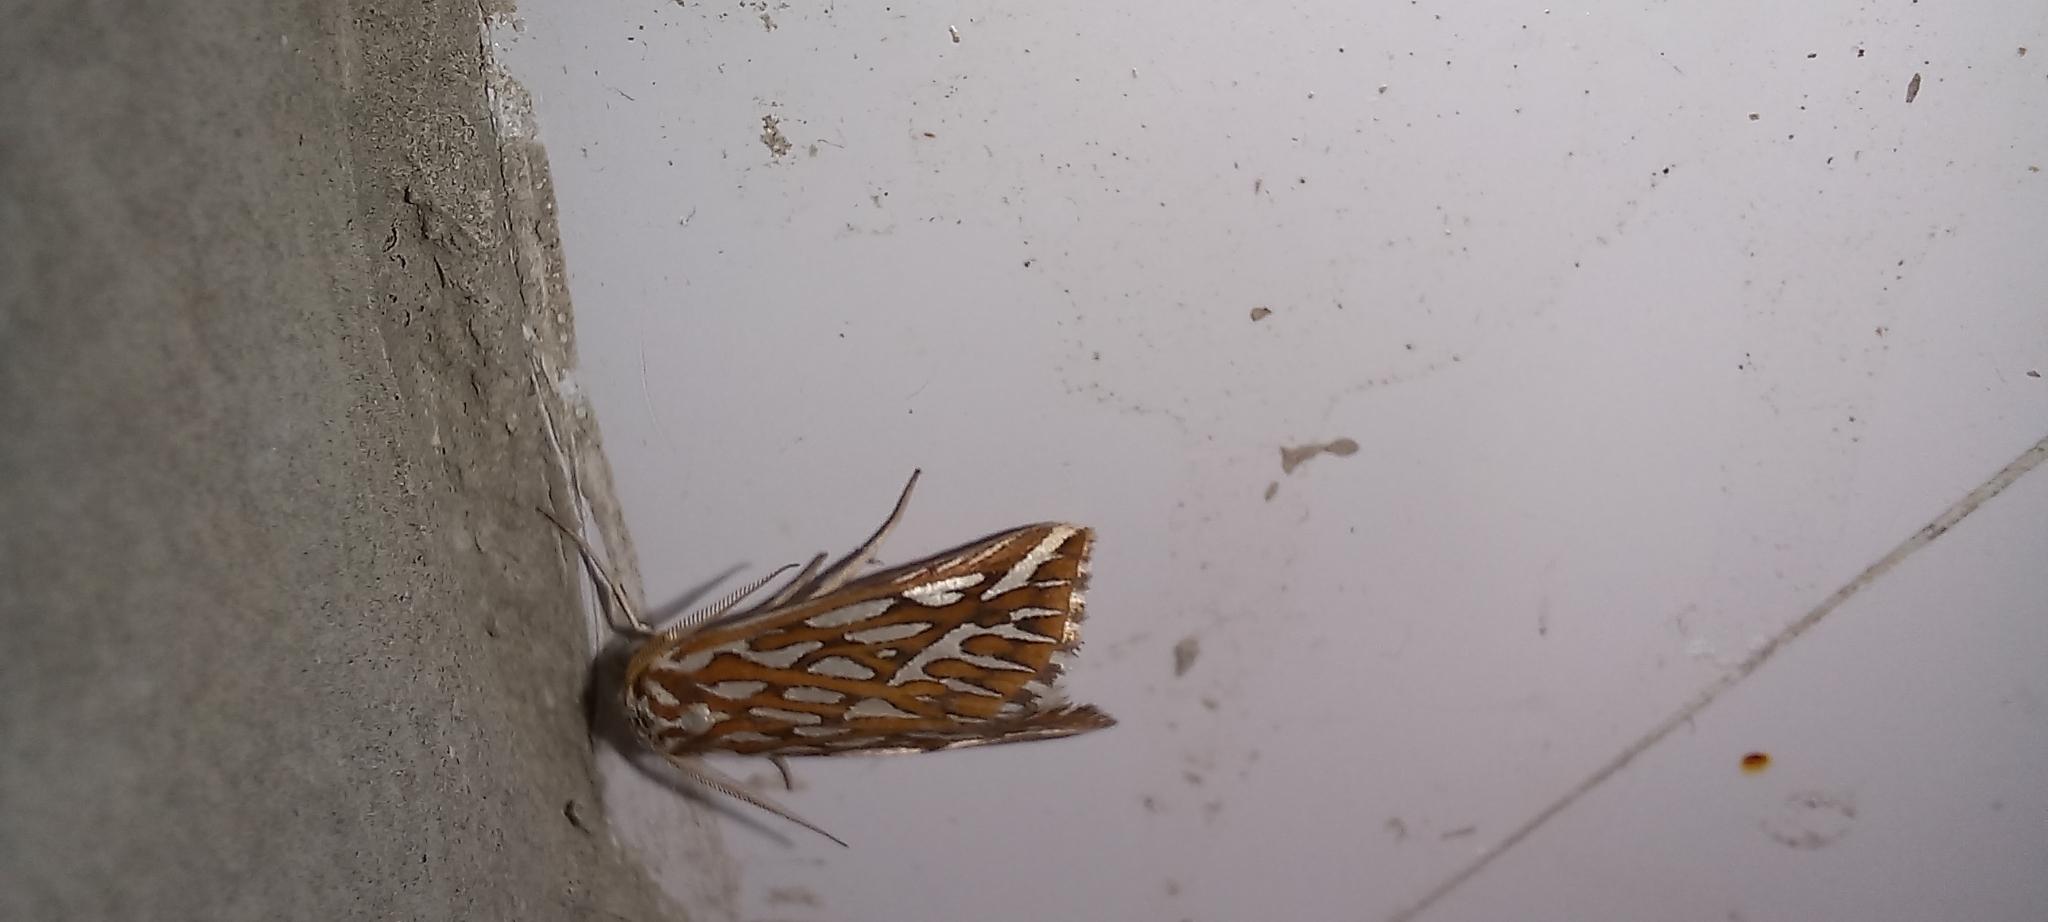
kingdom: Animalia
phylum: Arthropoda
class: Insecta
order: Lepidoptera
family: Geometridae
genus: Argyrophora
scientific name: Argyrophora trofonia
